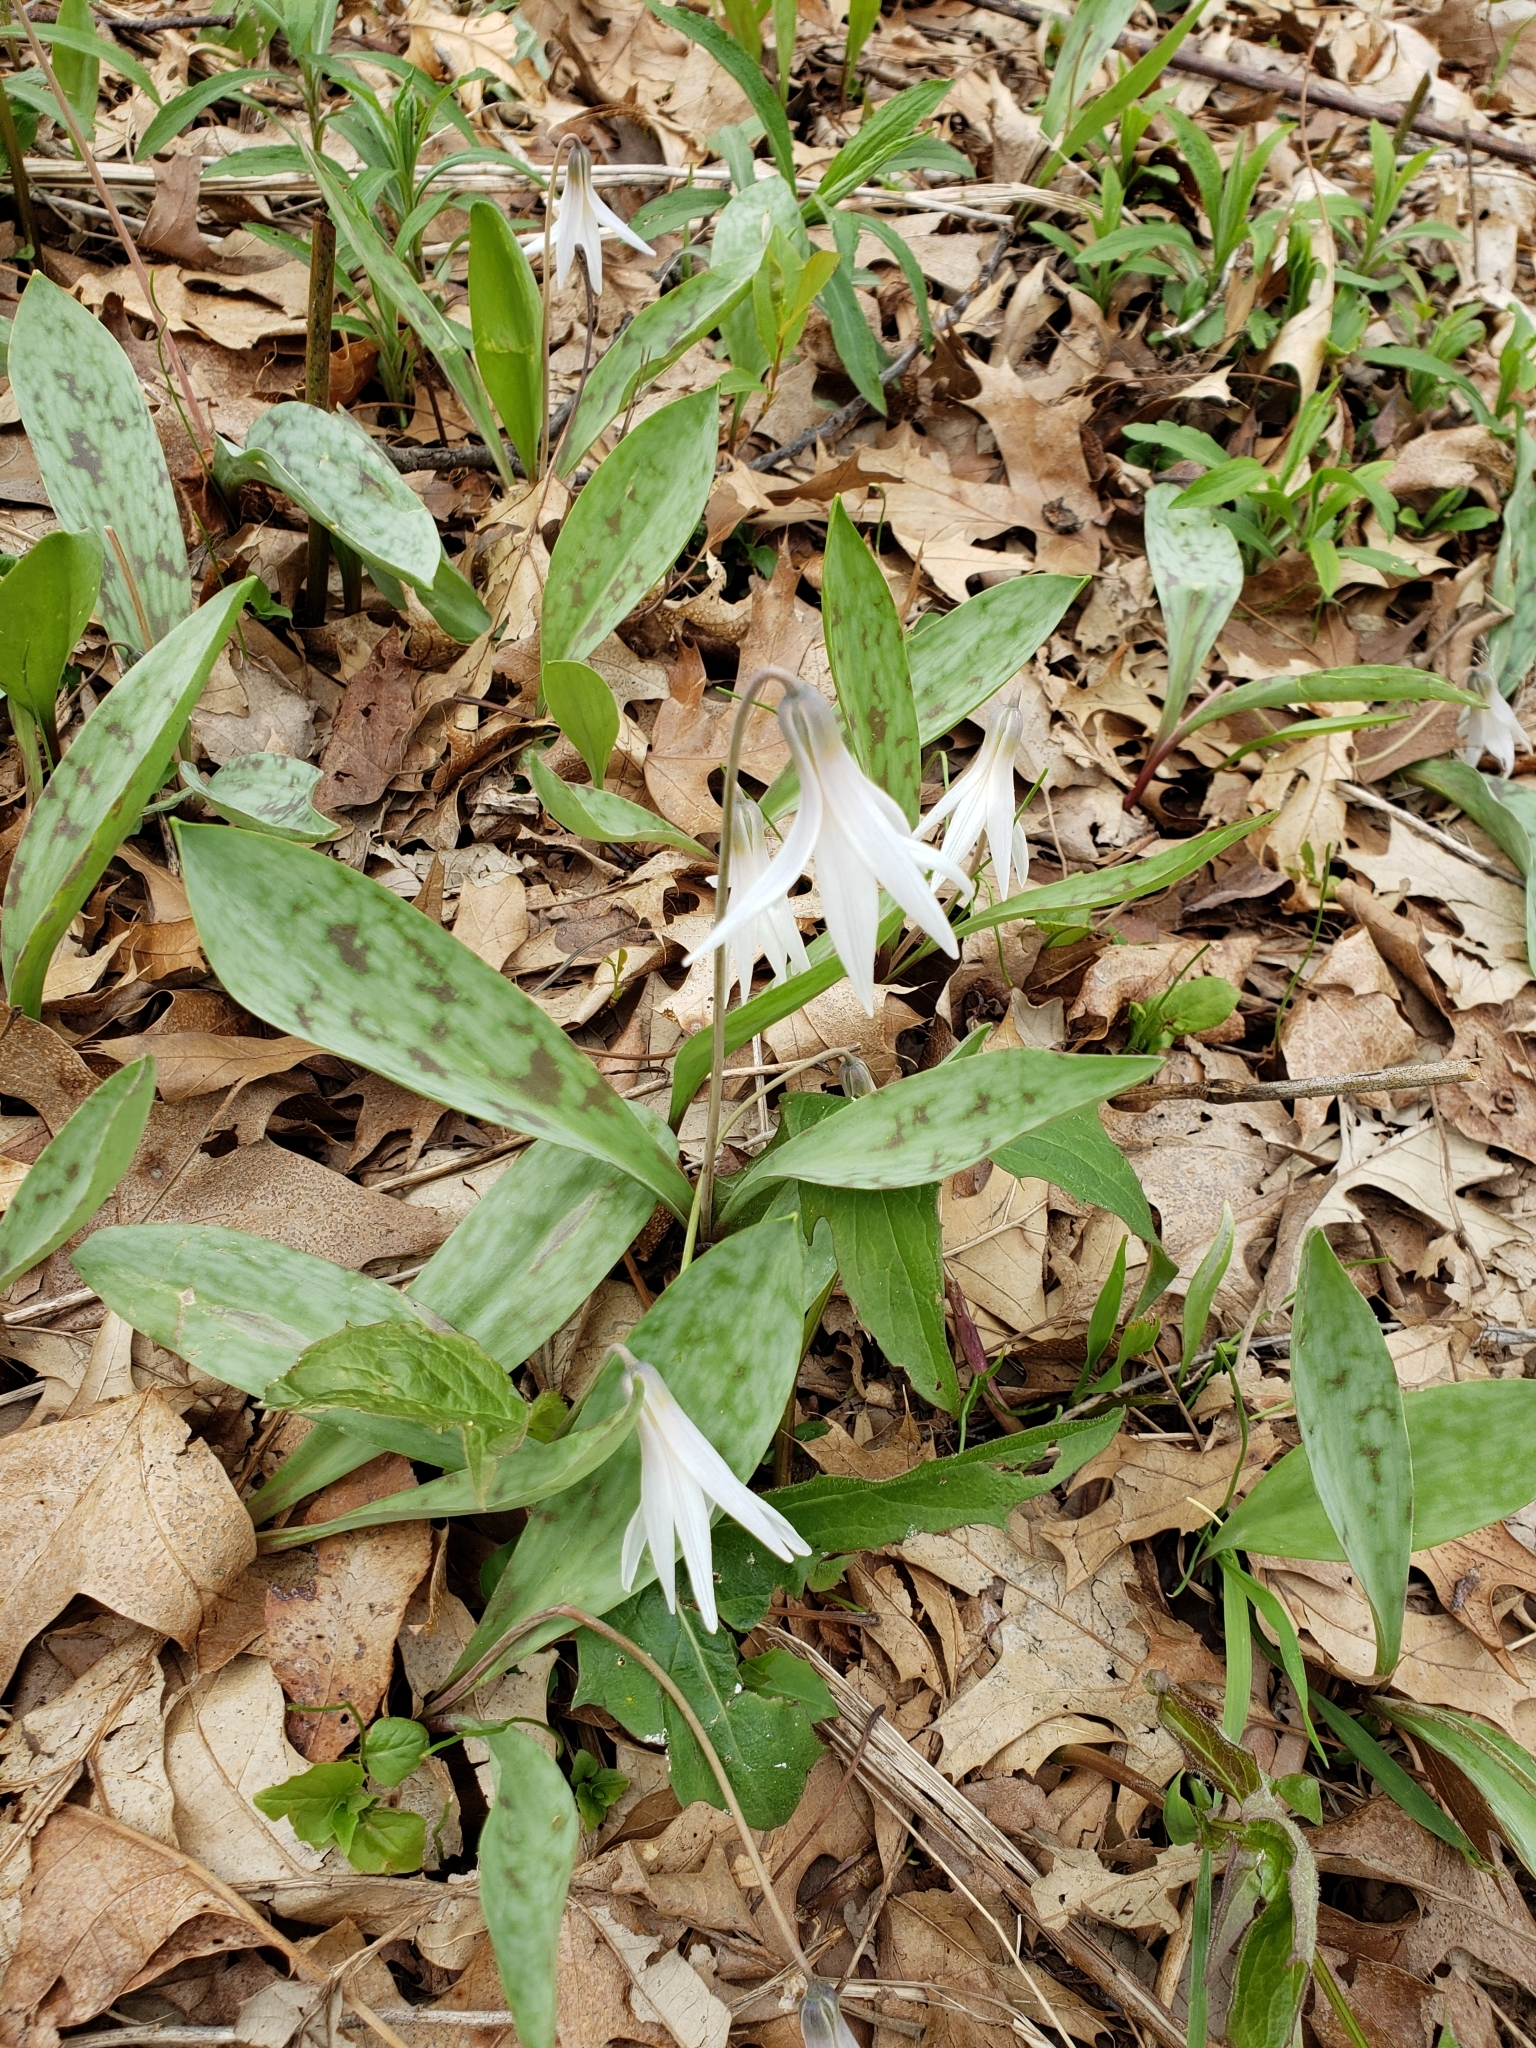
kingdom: Plantae
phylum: Tracheophyta
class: Liliopsida
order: Liliales
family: Liliaceae
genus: Erythronium
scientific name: Erythronium albidum
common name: White trout-lily
